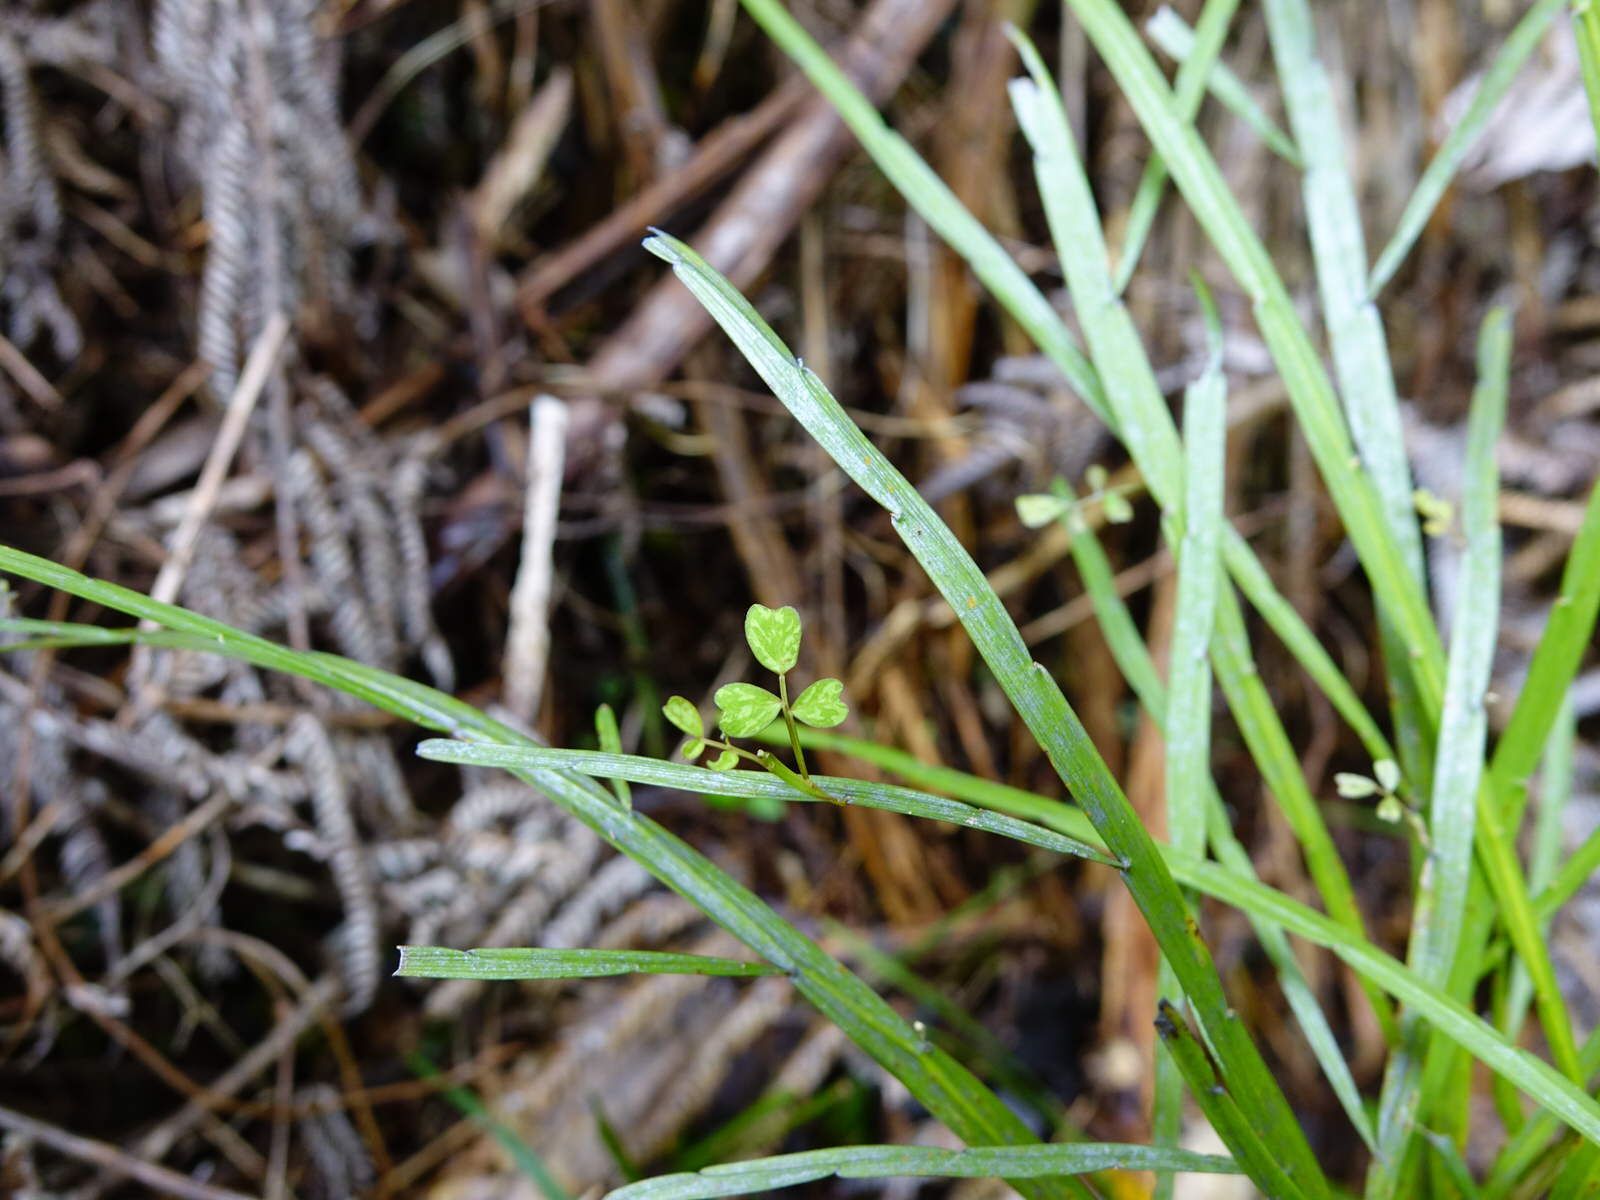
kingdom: Plantae
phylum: Tracheophyta
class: Magnoliopsida
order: Fabales
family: Fabaceae
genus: Carmichaelia
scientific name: Carmichaelia australis
